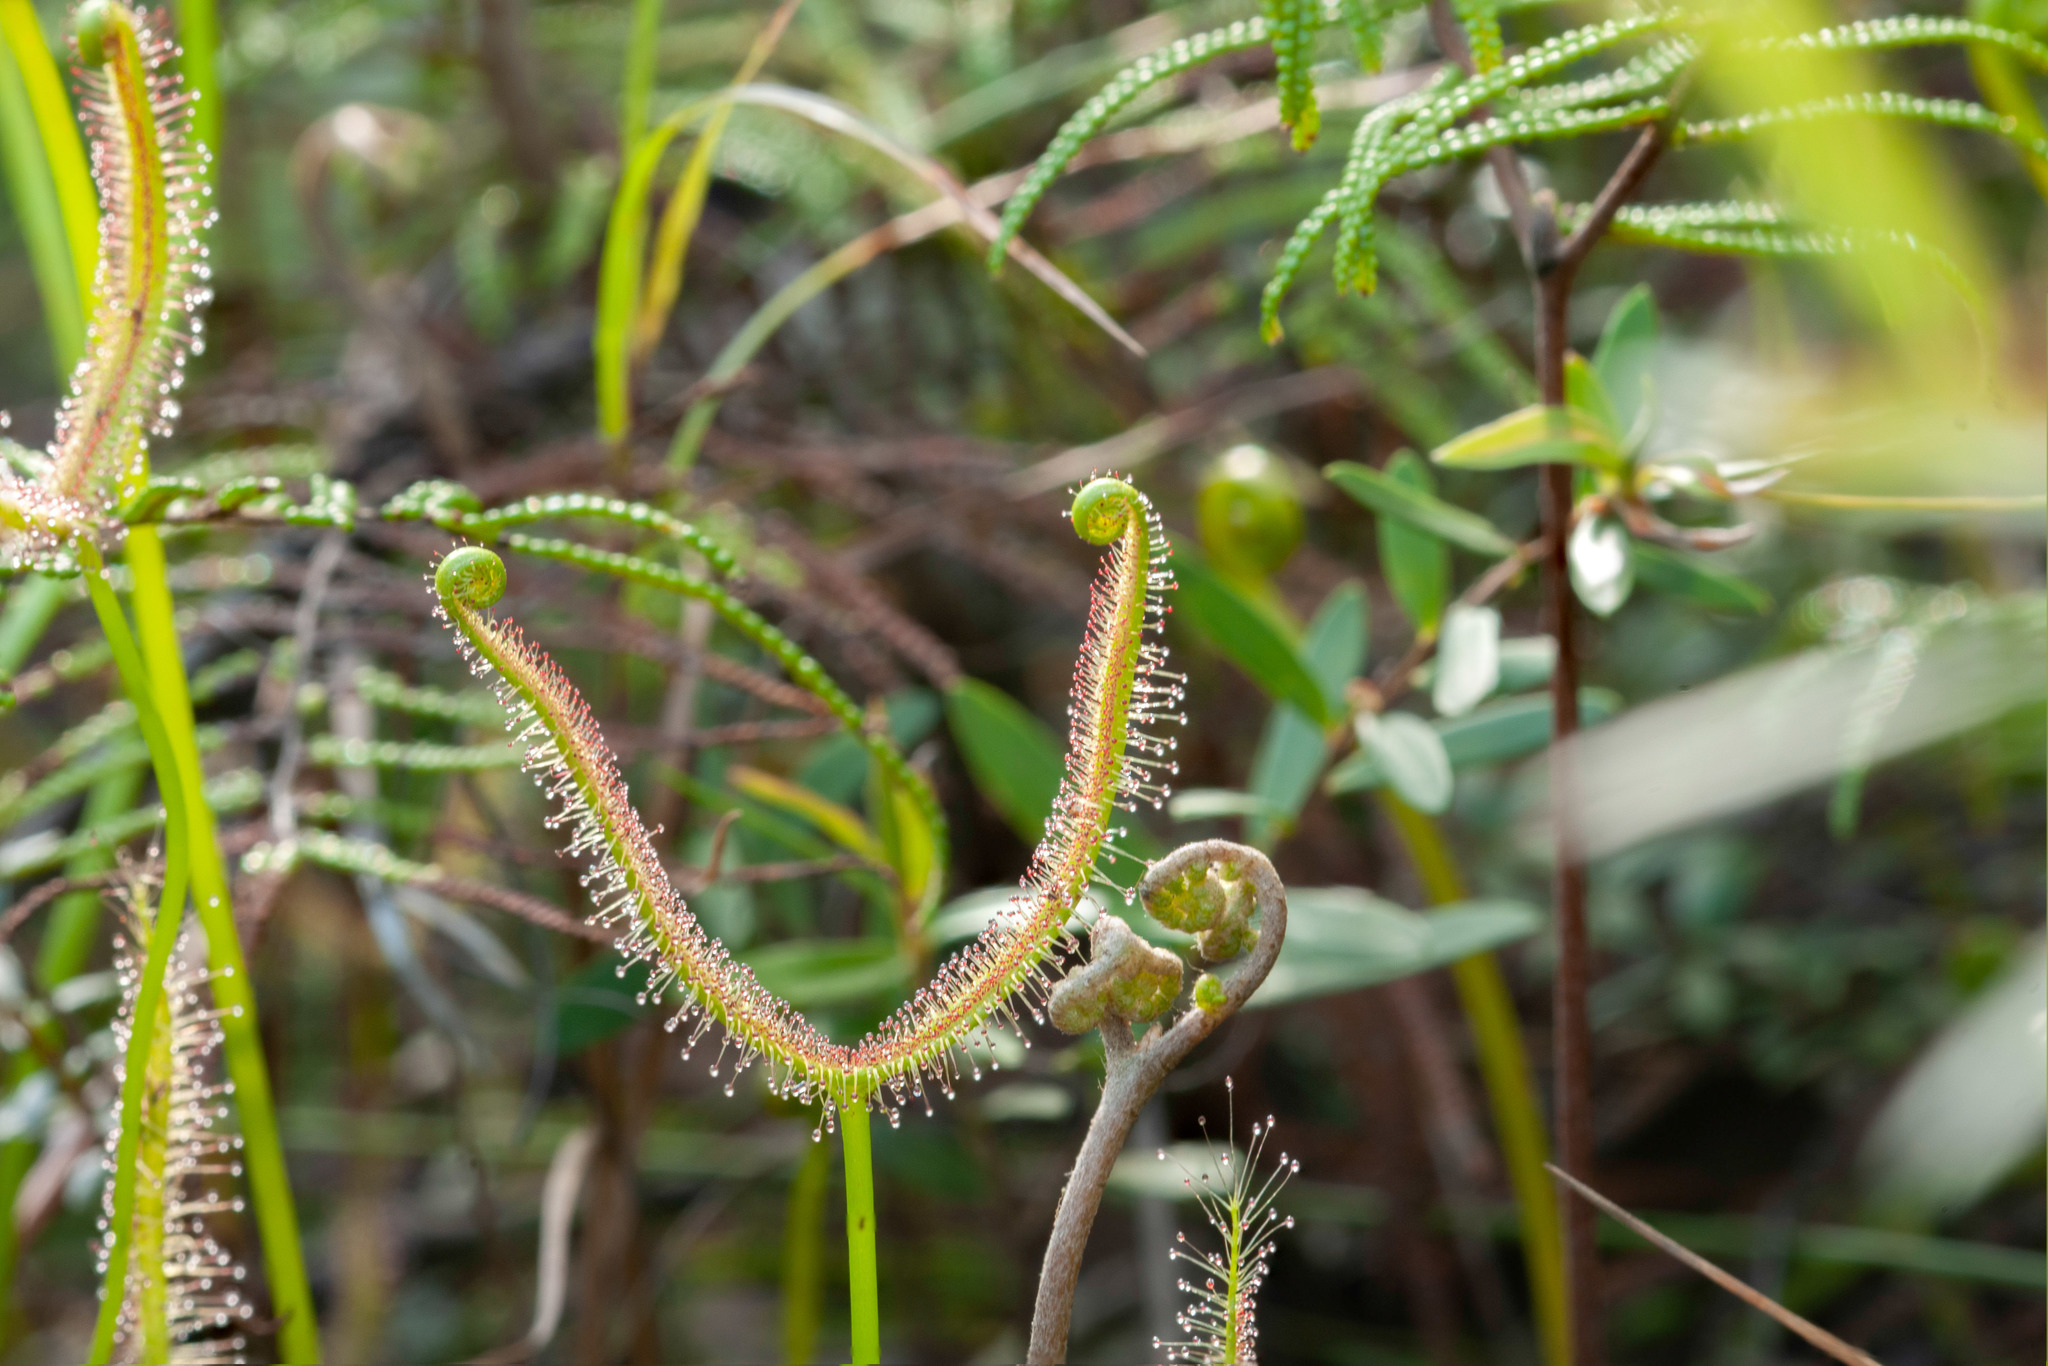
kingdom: Plantae
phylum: Tracheophyta
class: Magnoliopsida
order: Caryophyllales
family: Droseraceae
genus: Drosera
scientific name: Drosera binata
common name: Forked sundew
